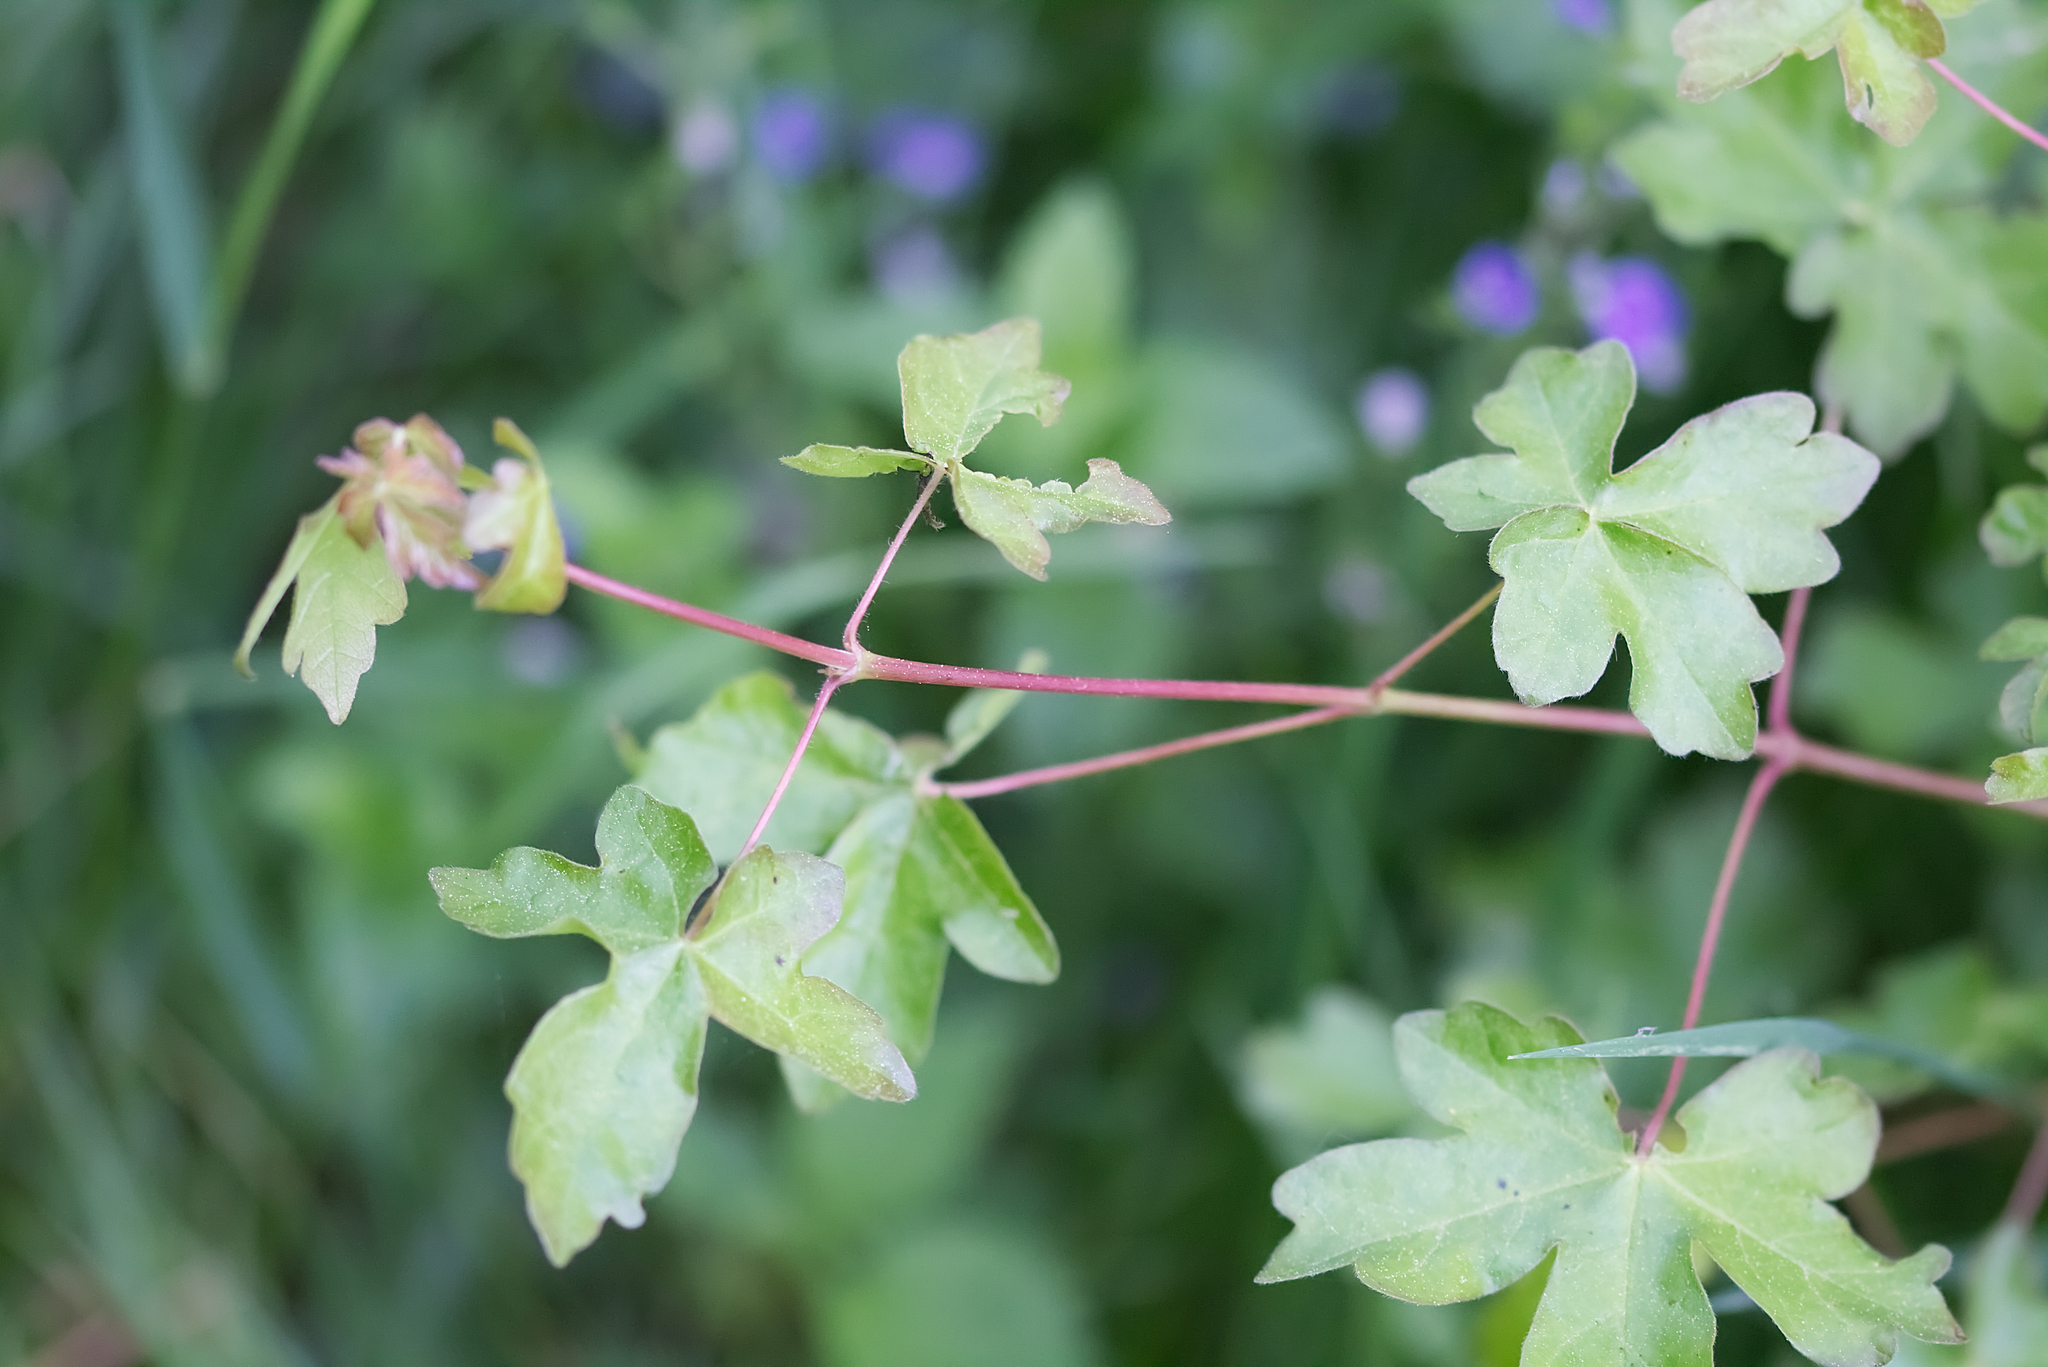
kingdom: Plantae
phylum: Tracheophyta
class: Magnoliopsida
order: Sapindales
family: Sapindaceae
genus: Acer
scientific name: Acer campestre
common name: Field maple
